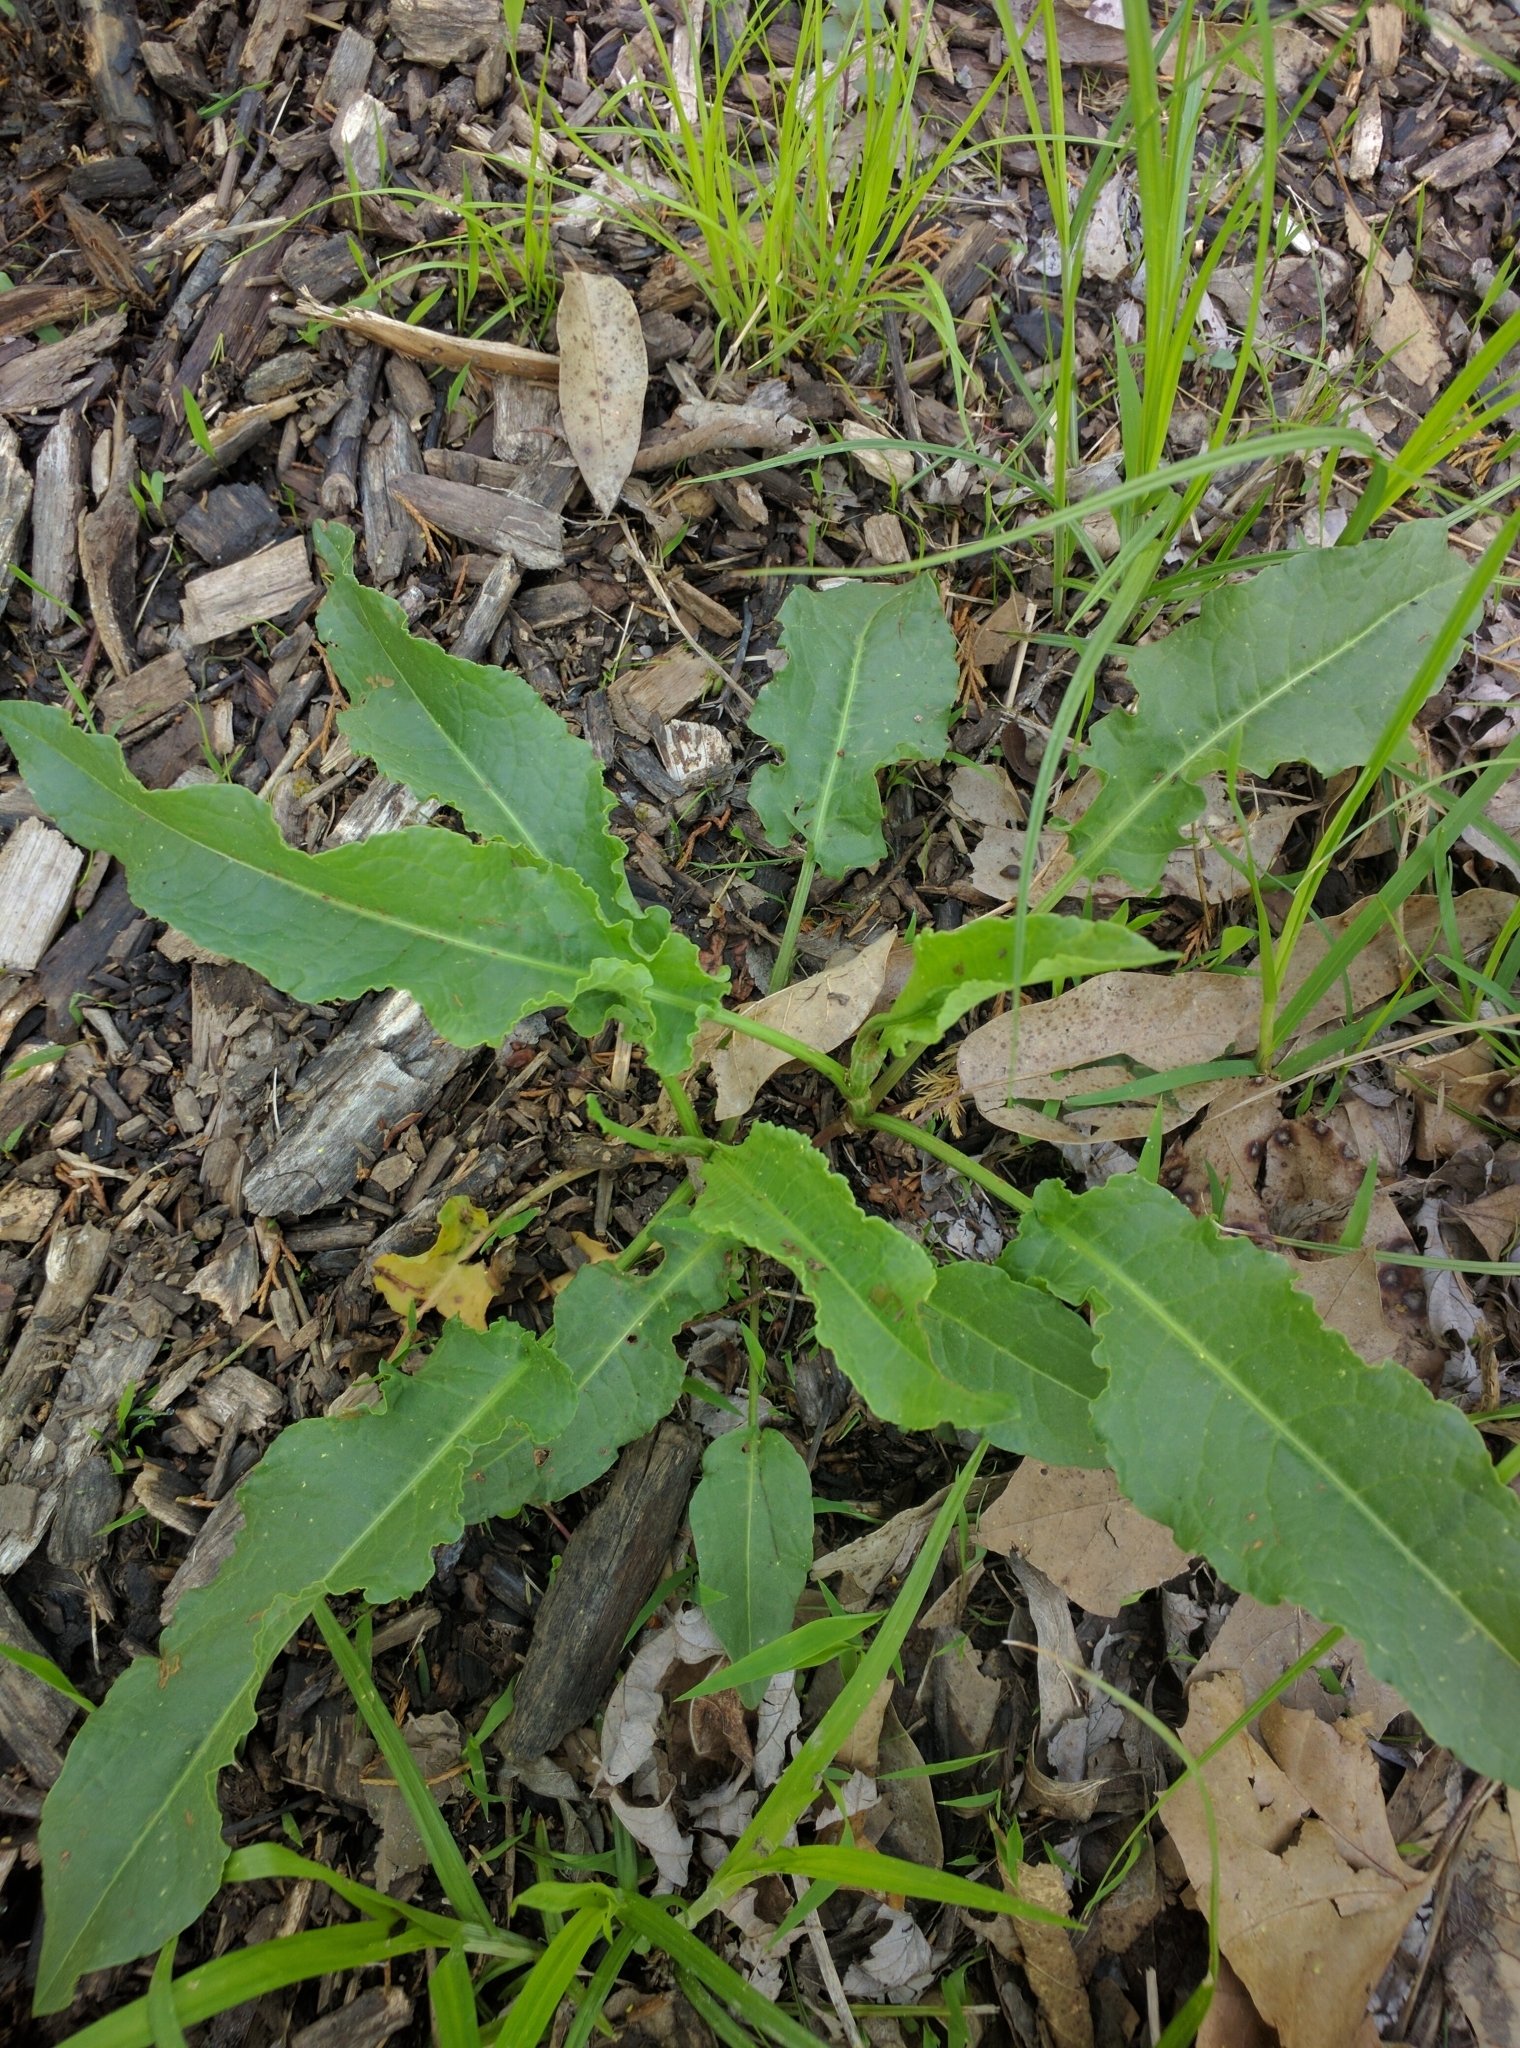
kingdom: Plantae
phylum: Tracheophyta
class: Magnoliopsida
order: Caryophyllales
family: Polygonaceae
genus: Rumex
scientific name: Rumex crispus
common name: Curled dock
